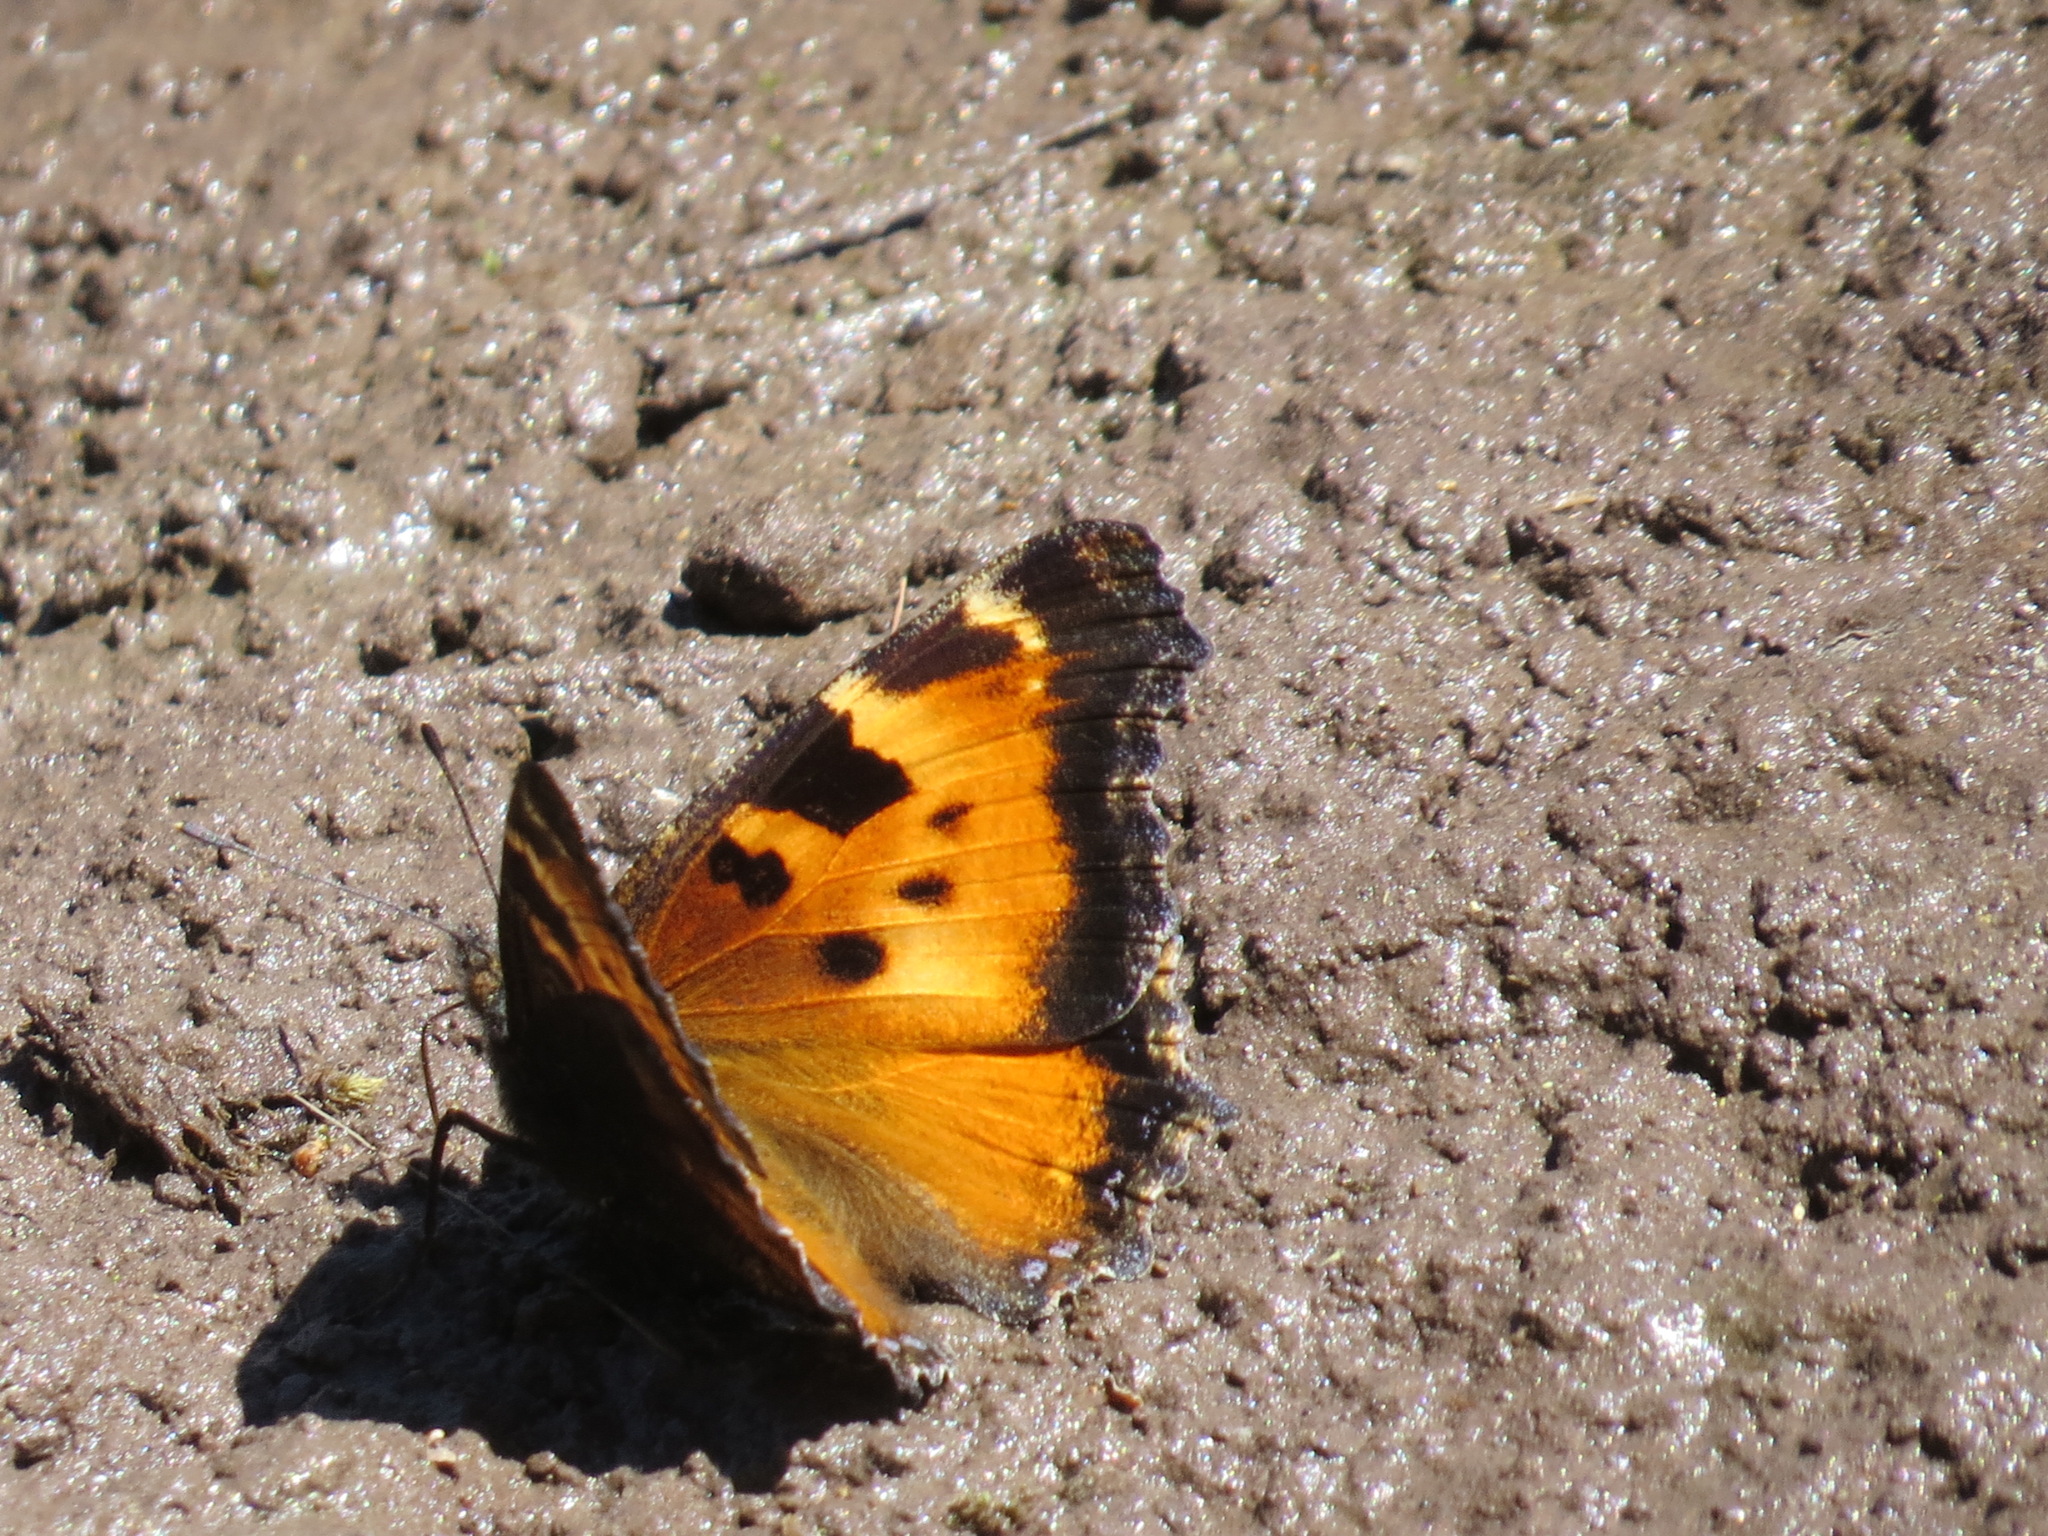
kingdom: Animalia
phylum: Arthropoda
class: Insecta
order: Lepidoptera
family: Nymphalidae
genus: Nymphalis
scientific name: Nymphalis californica
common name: California tortoiseshell
